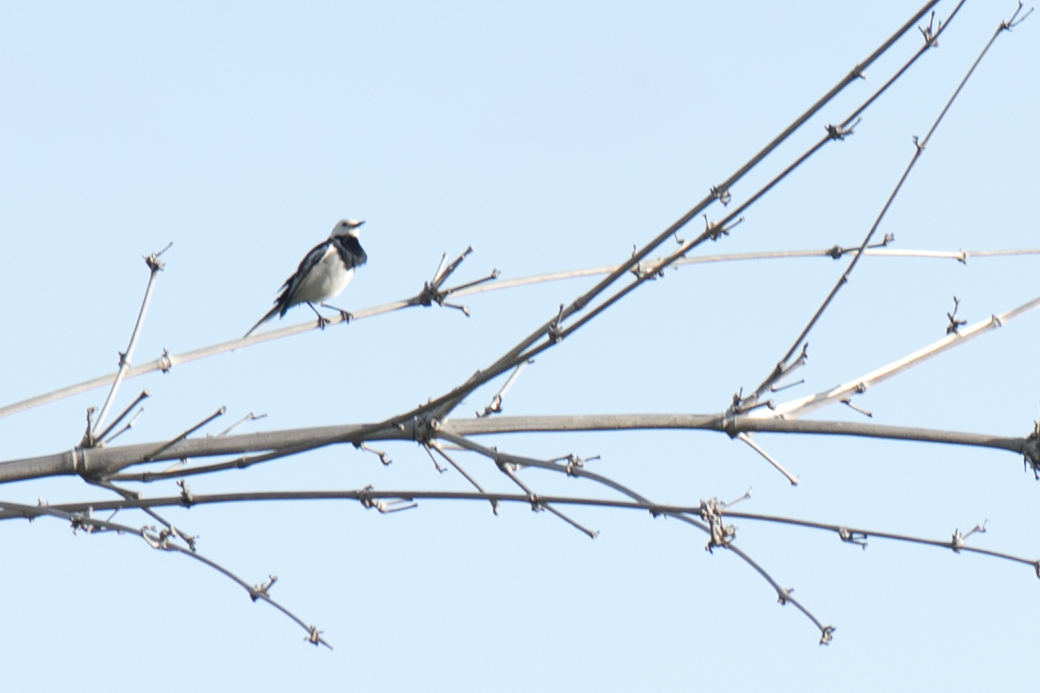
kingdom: Animalia
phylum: Chordata
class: Aves
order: Passeriformes
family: Sturnidae
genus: Gracupica
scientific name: Gracupica nigricollis
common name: Black-collared starling
